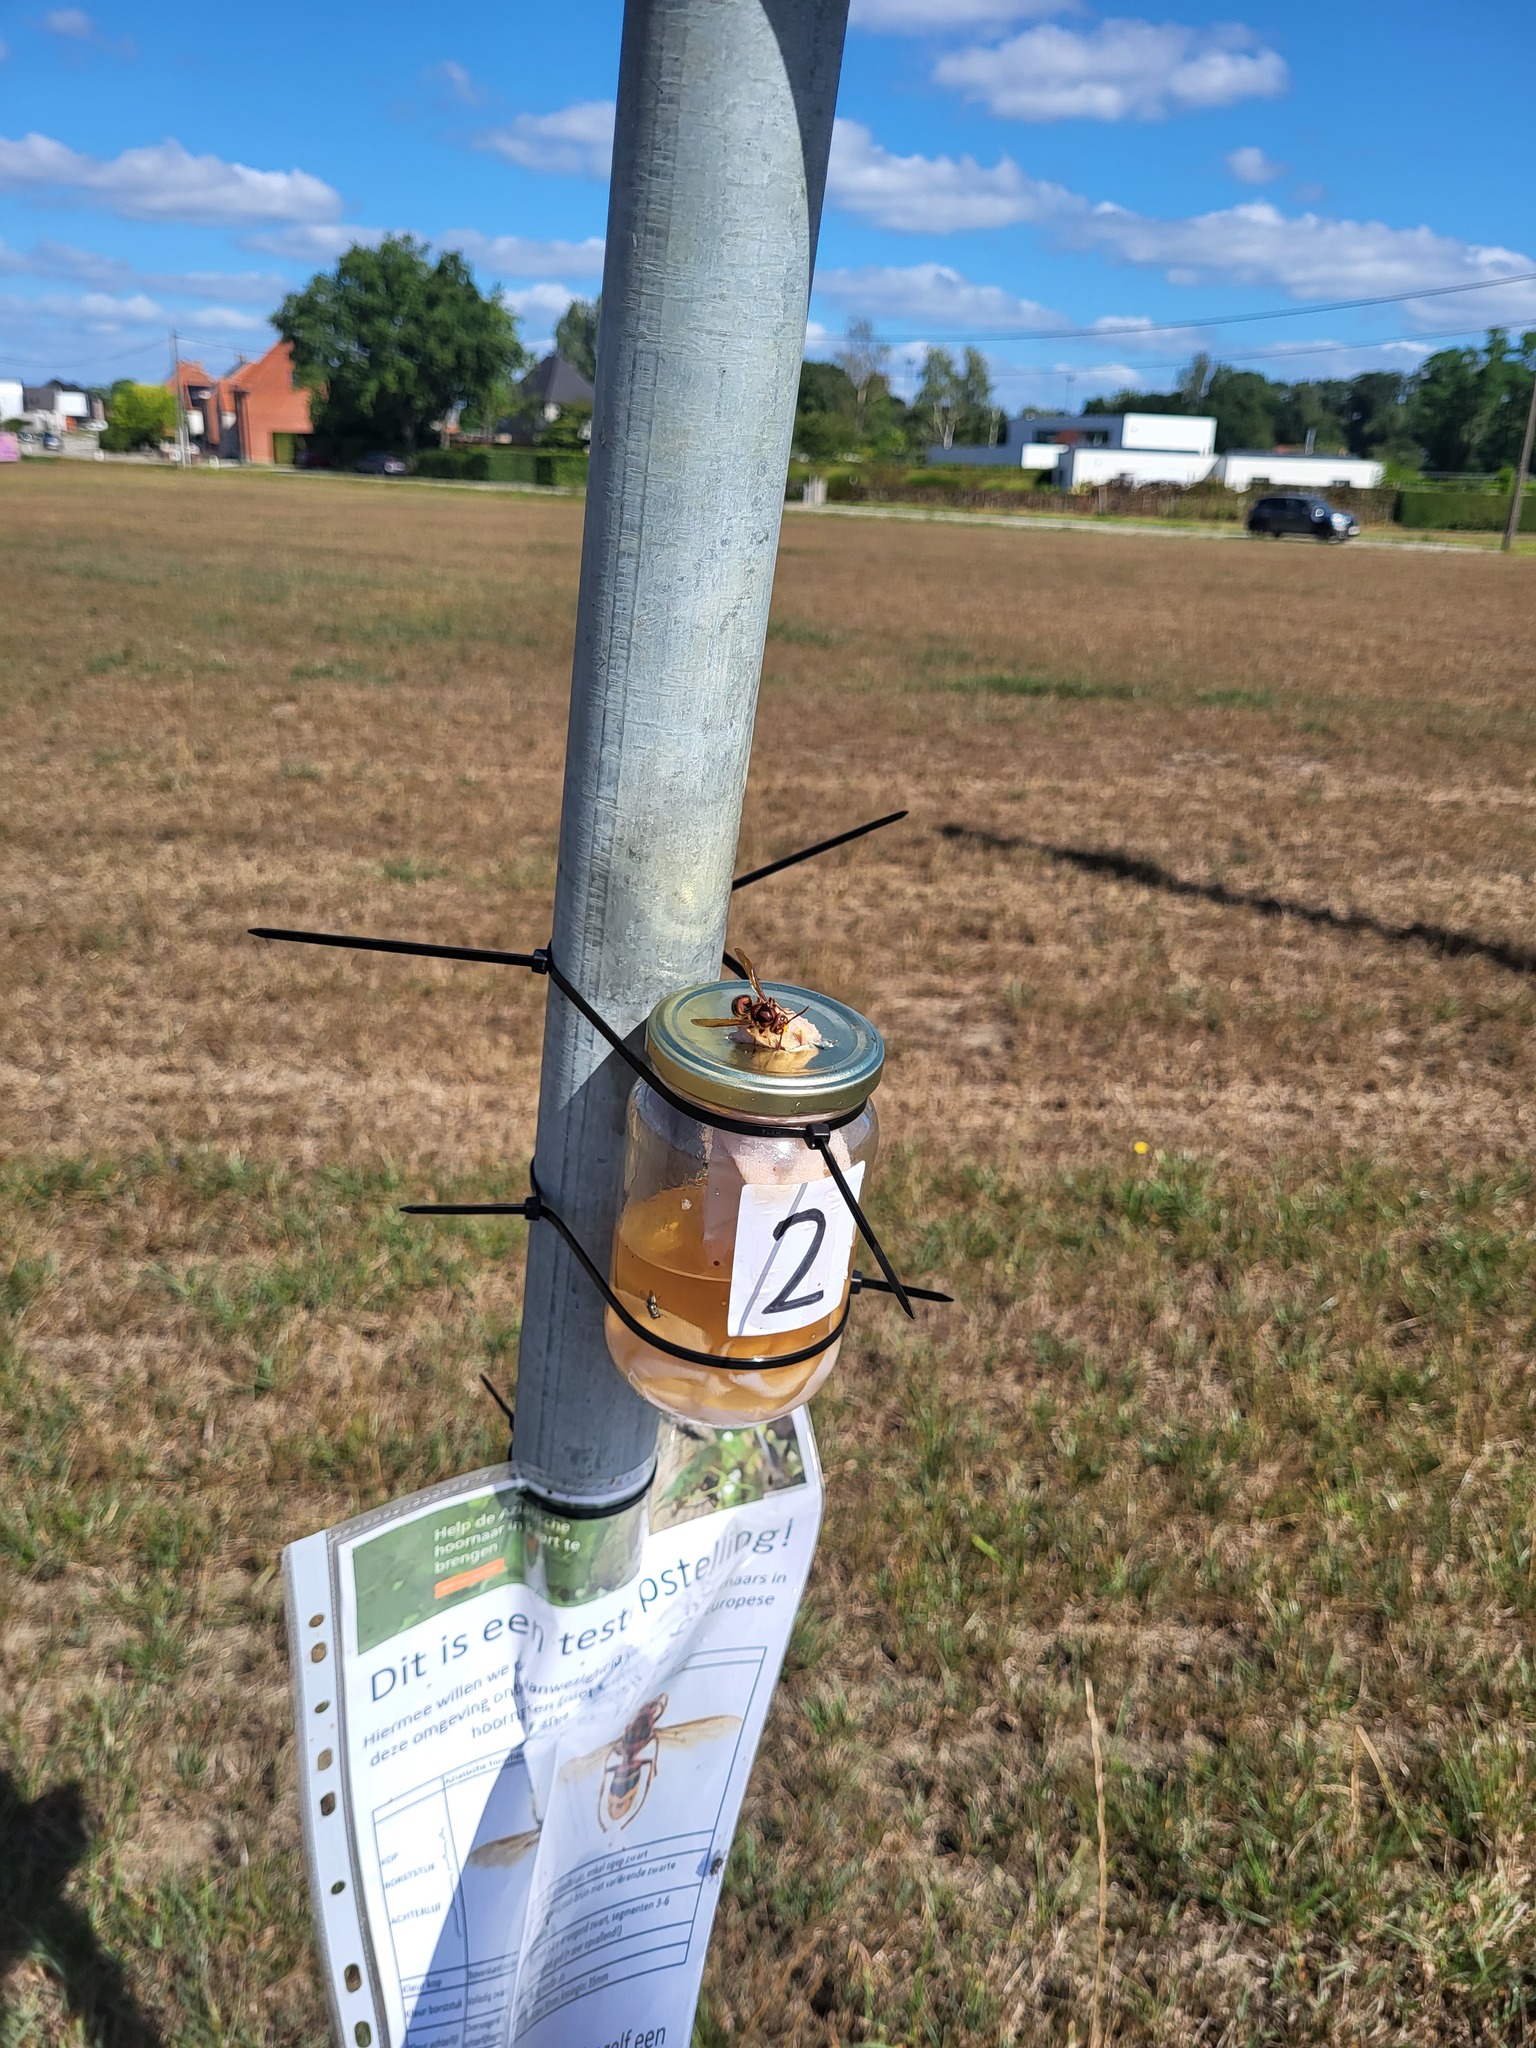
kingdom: Animalia
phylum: Arthropoda
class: Insecta
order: Hymenoptera
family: Vespidae
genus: Vespa
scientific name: Vespa crabro
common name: Hornet
